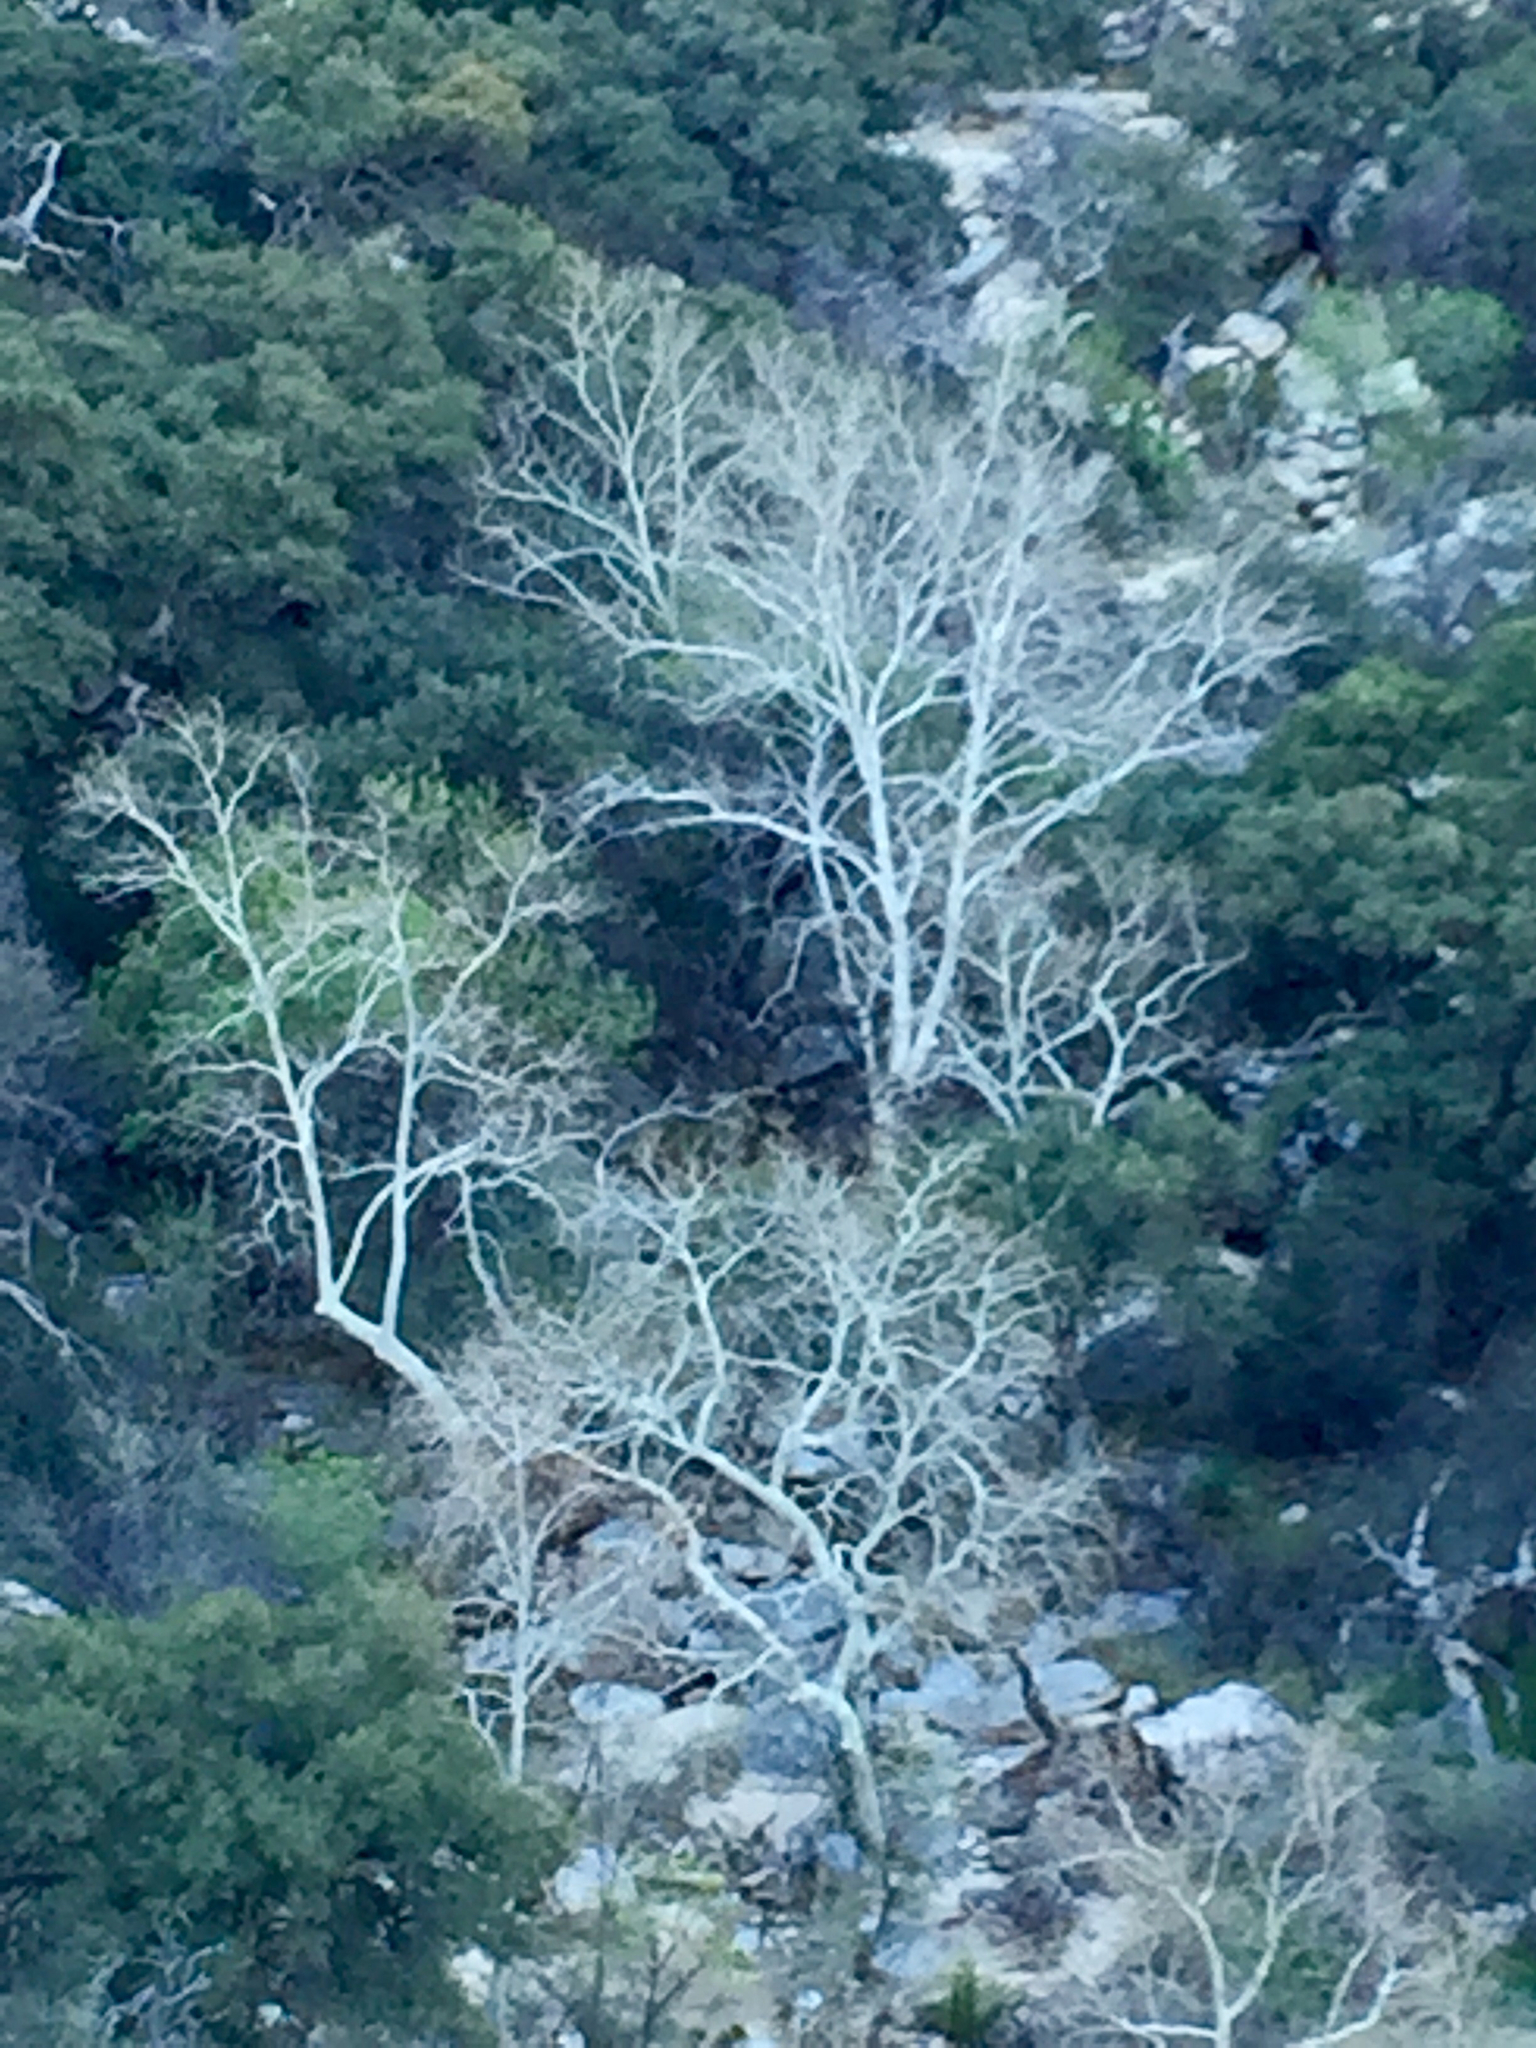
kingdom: Plantae
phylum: Tracheophyta
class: Magnoliopsida
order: Proteales
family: Platanaceae
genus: Platanus
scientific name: Platanus wrightii
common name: Arizona sycamore
